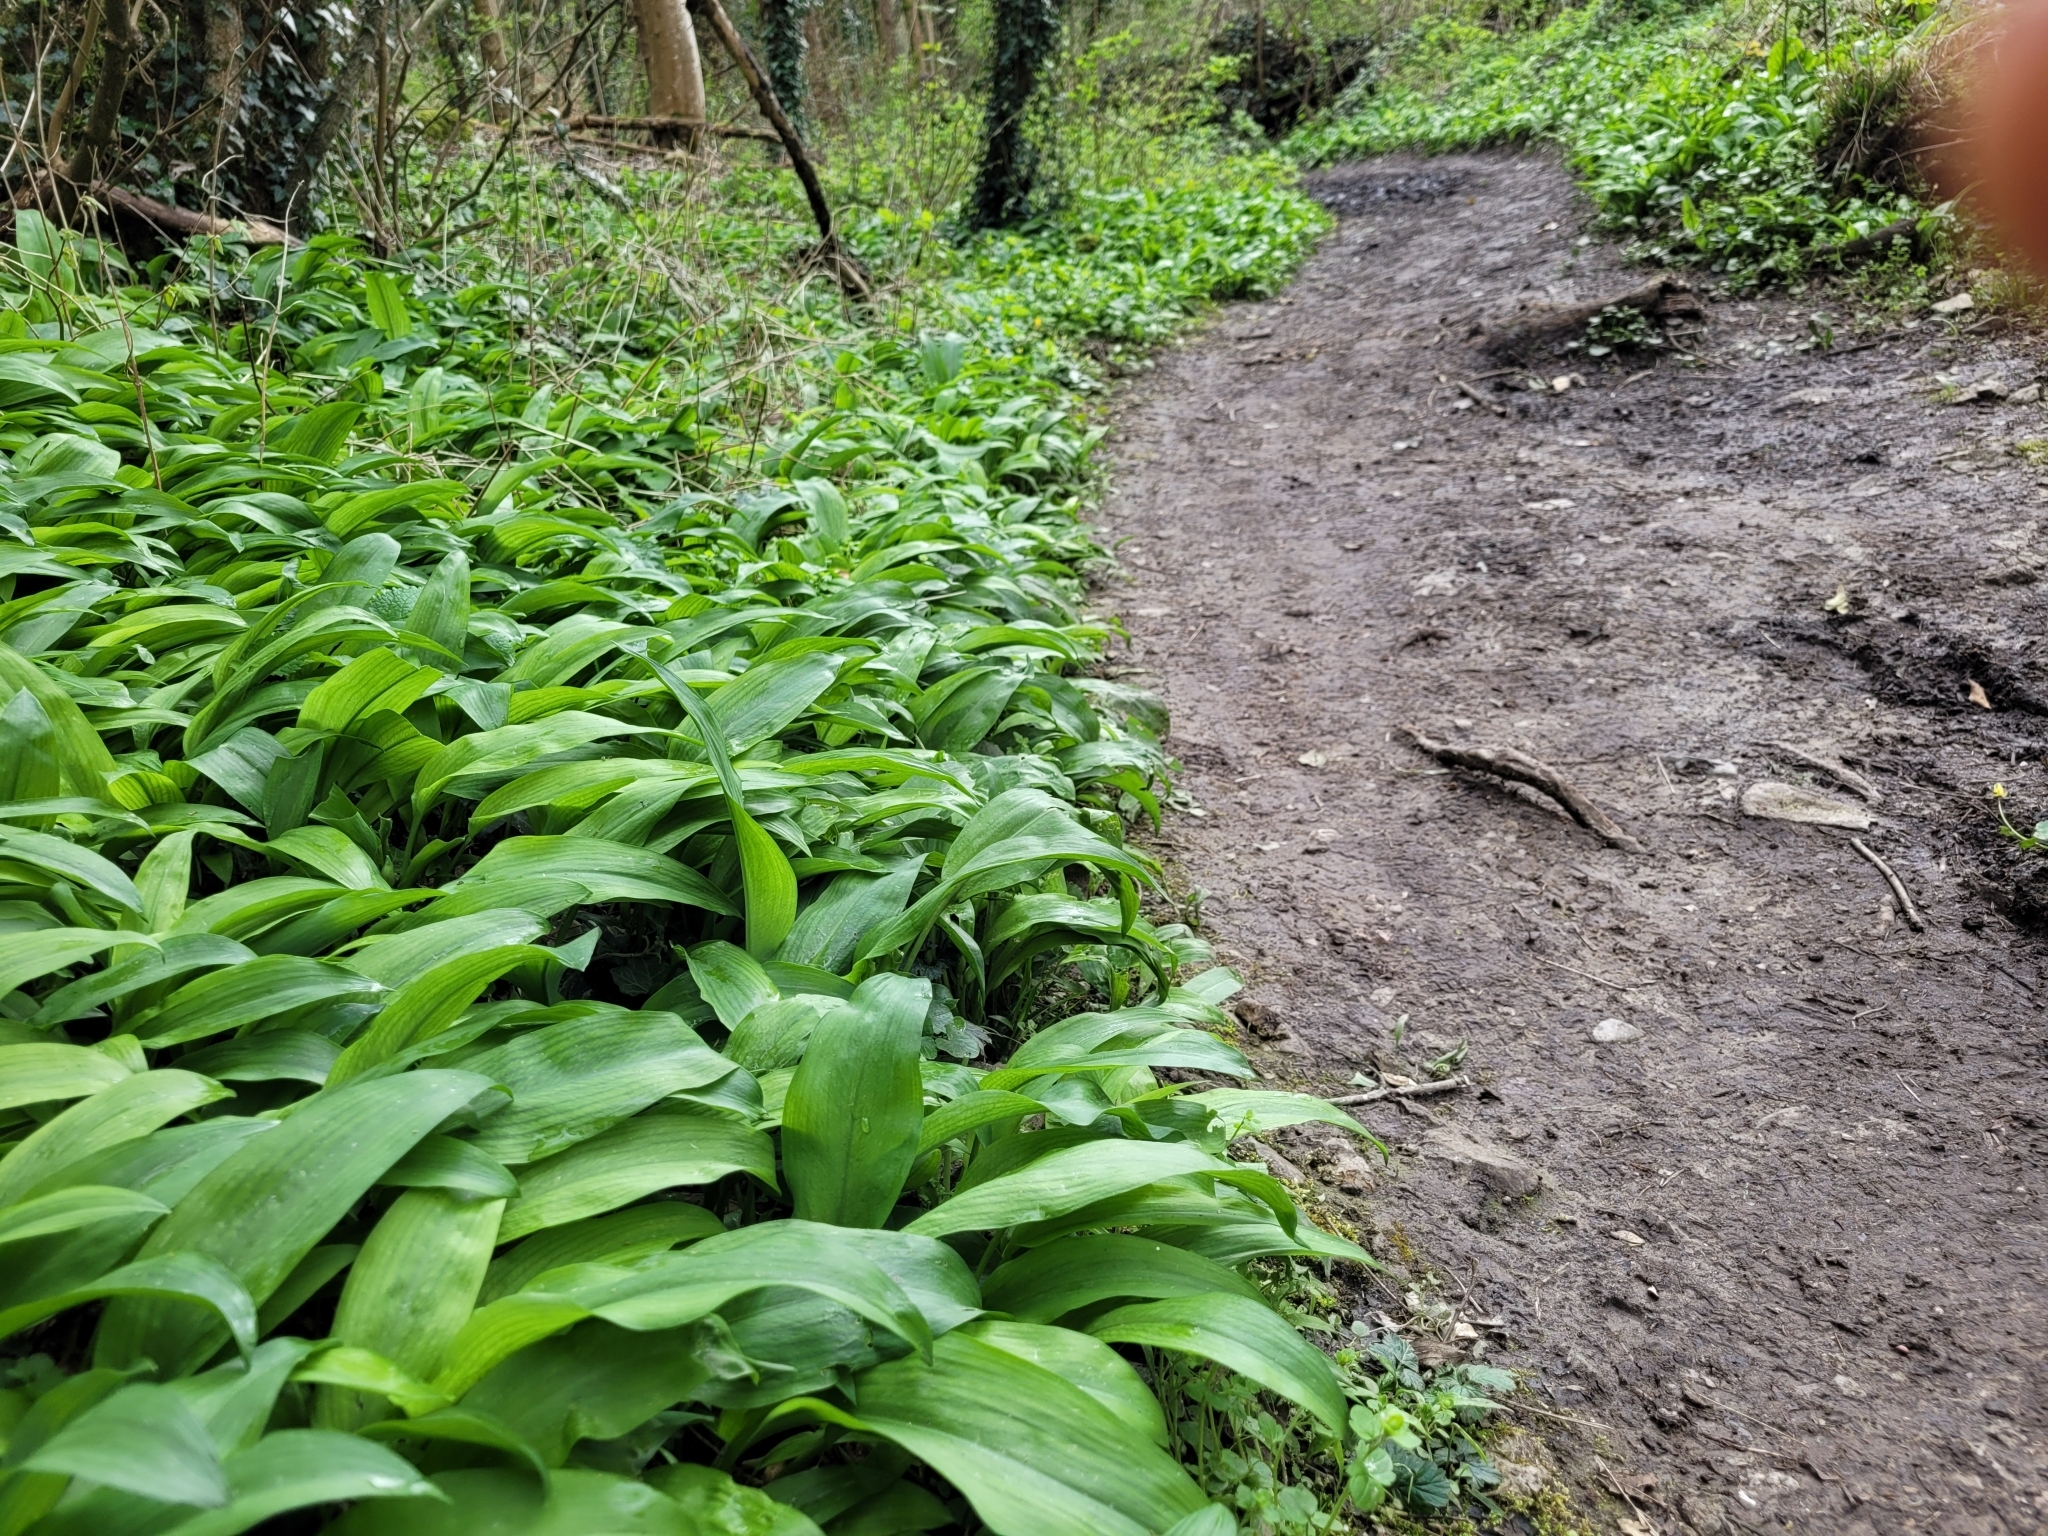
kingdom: Plantae
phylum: Tracheophyta
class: Liliopsida
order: Asparagales
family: Amaryllidaceae
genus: Allium
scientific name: Allium ursinum
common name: Ramsons
